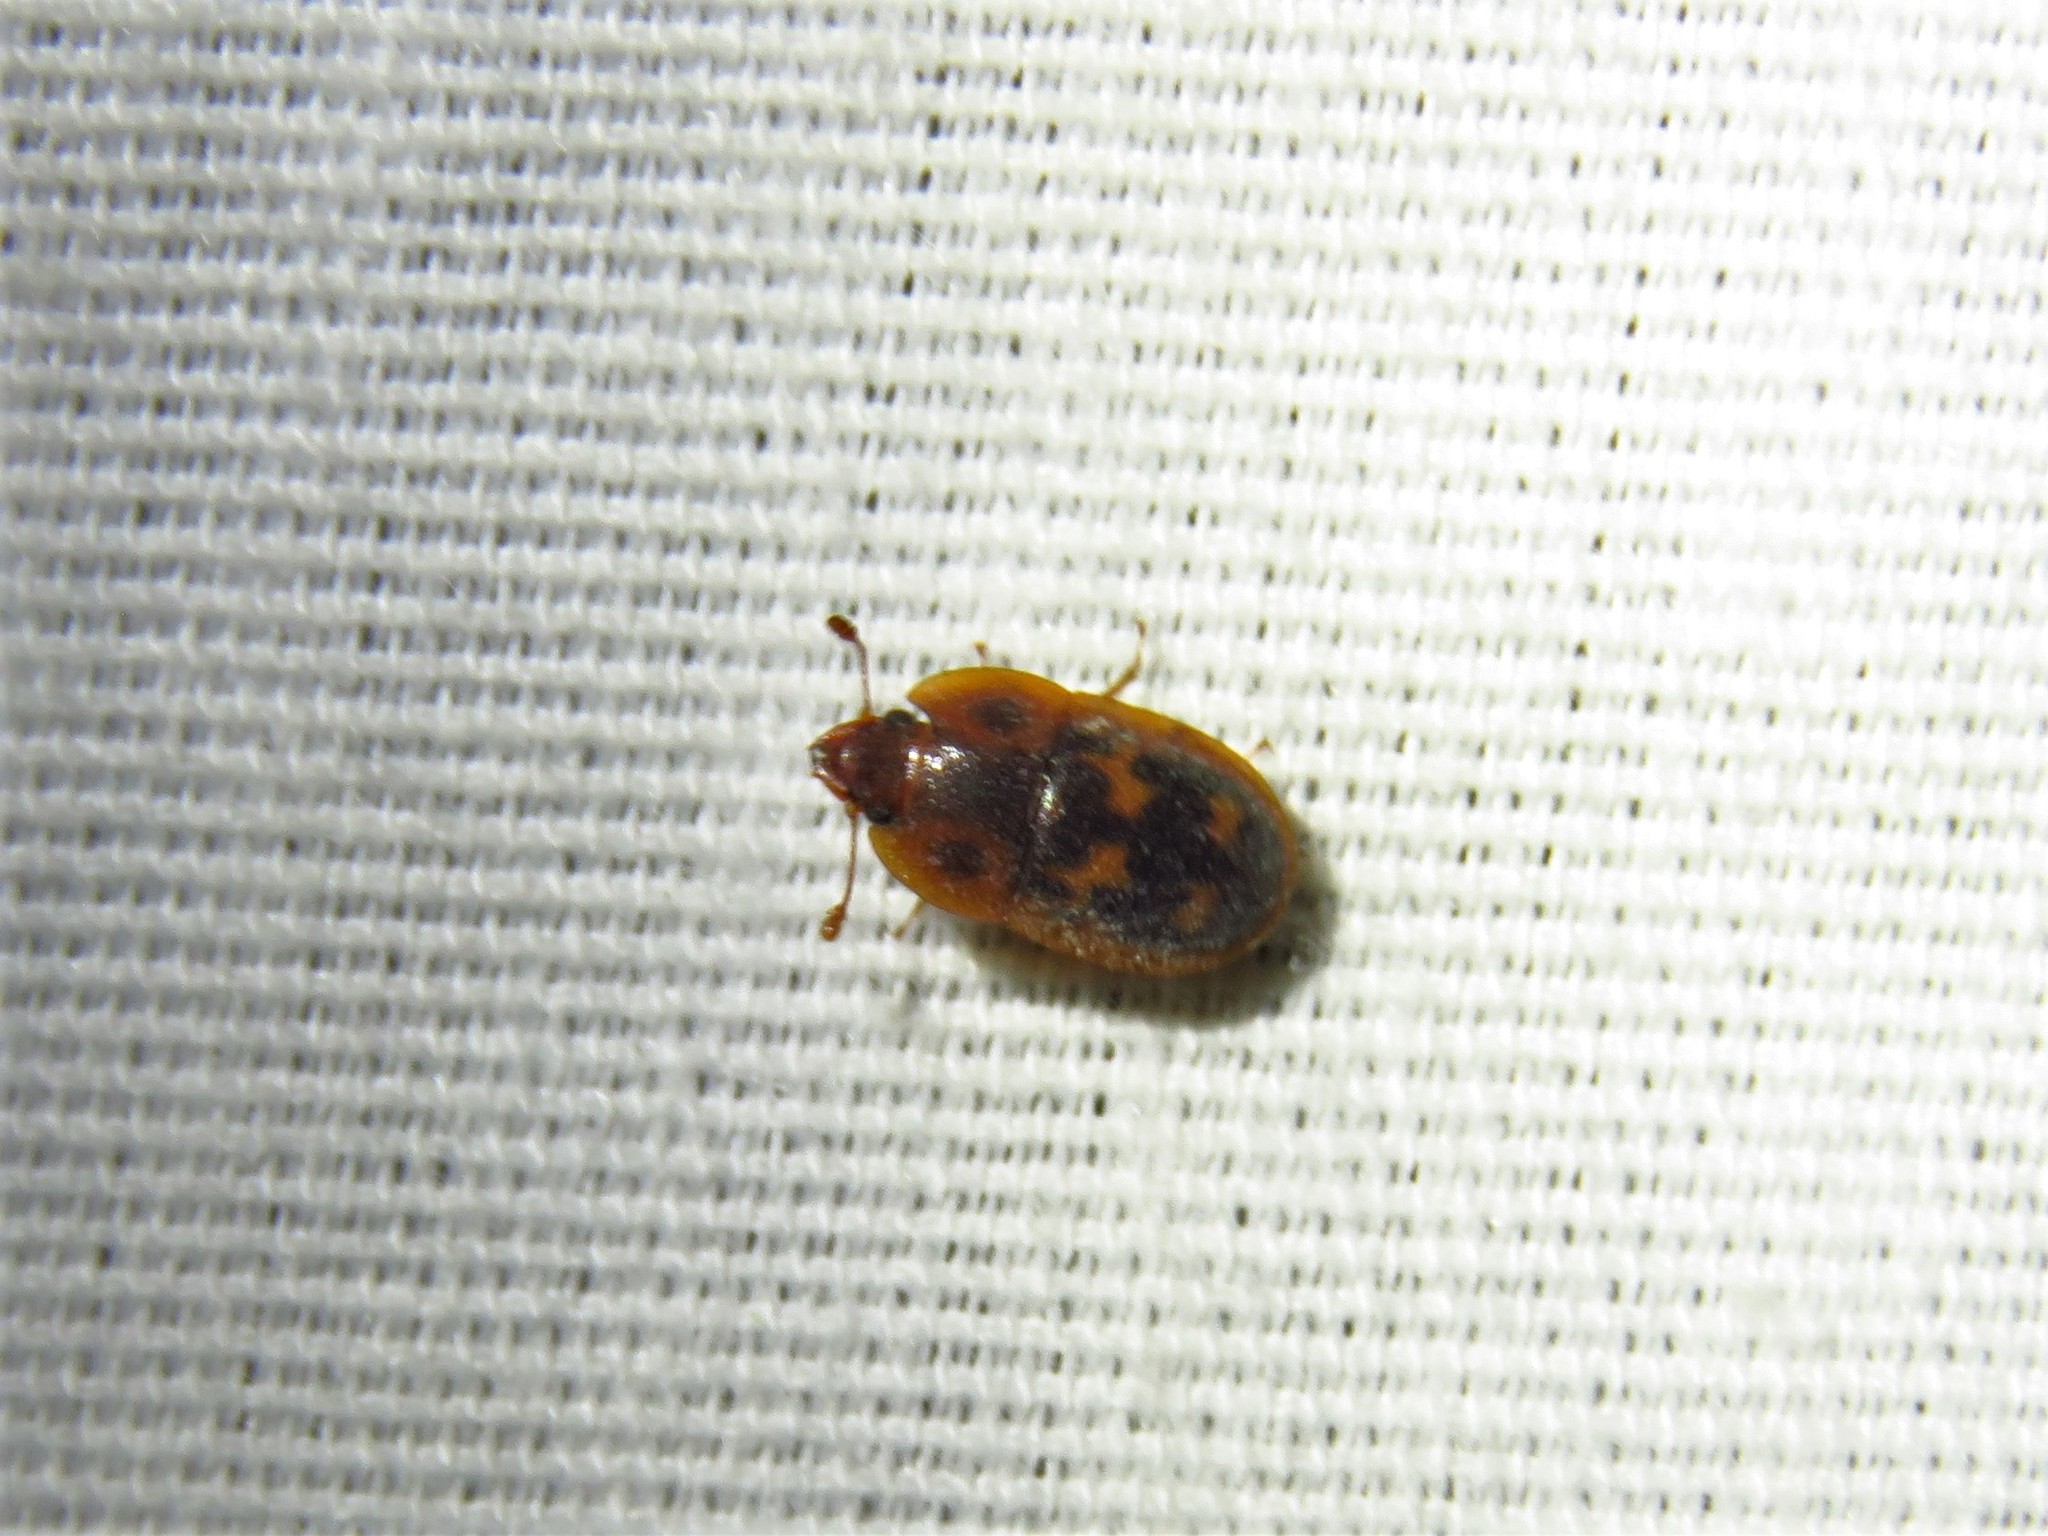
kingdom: Animalia
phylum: Arthropoda
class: Insecta
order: Coleoptera
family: Nitidulidae
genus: Prometopia
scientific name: Prometopia sexmaculata
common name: Six-spotted sap-feeding beetle
